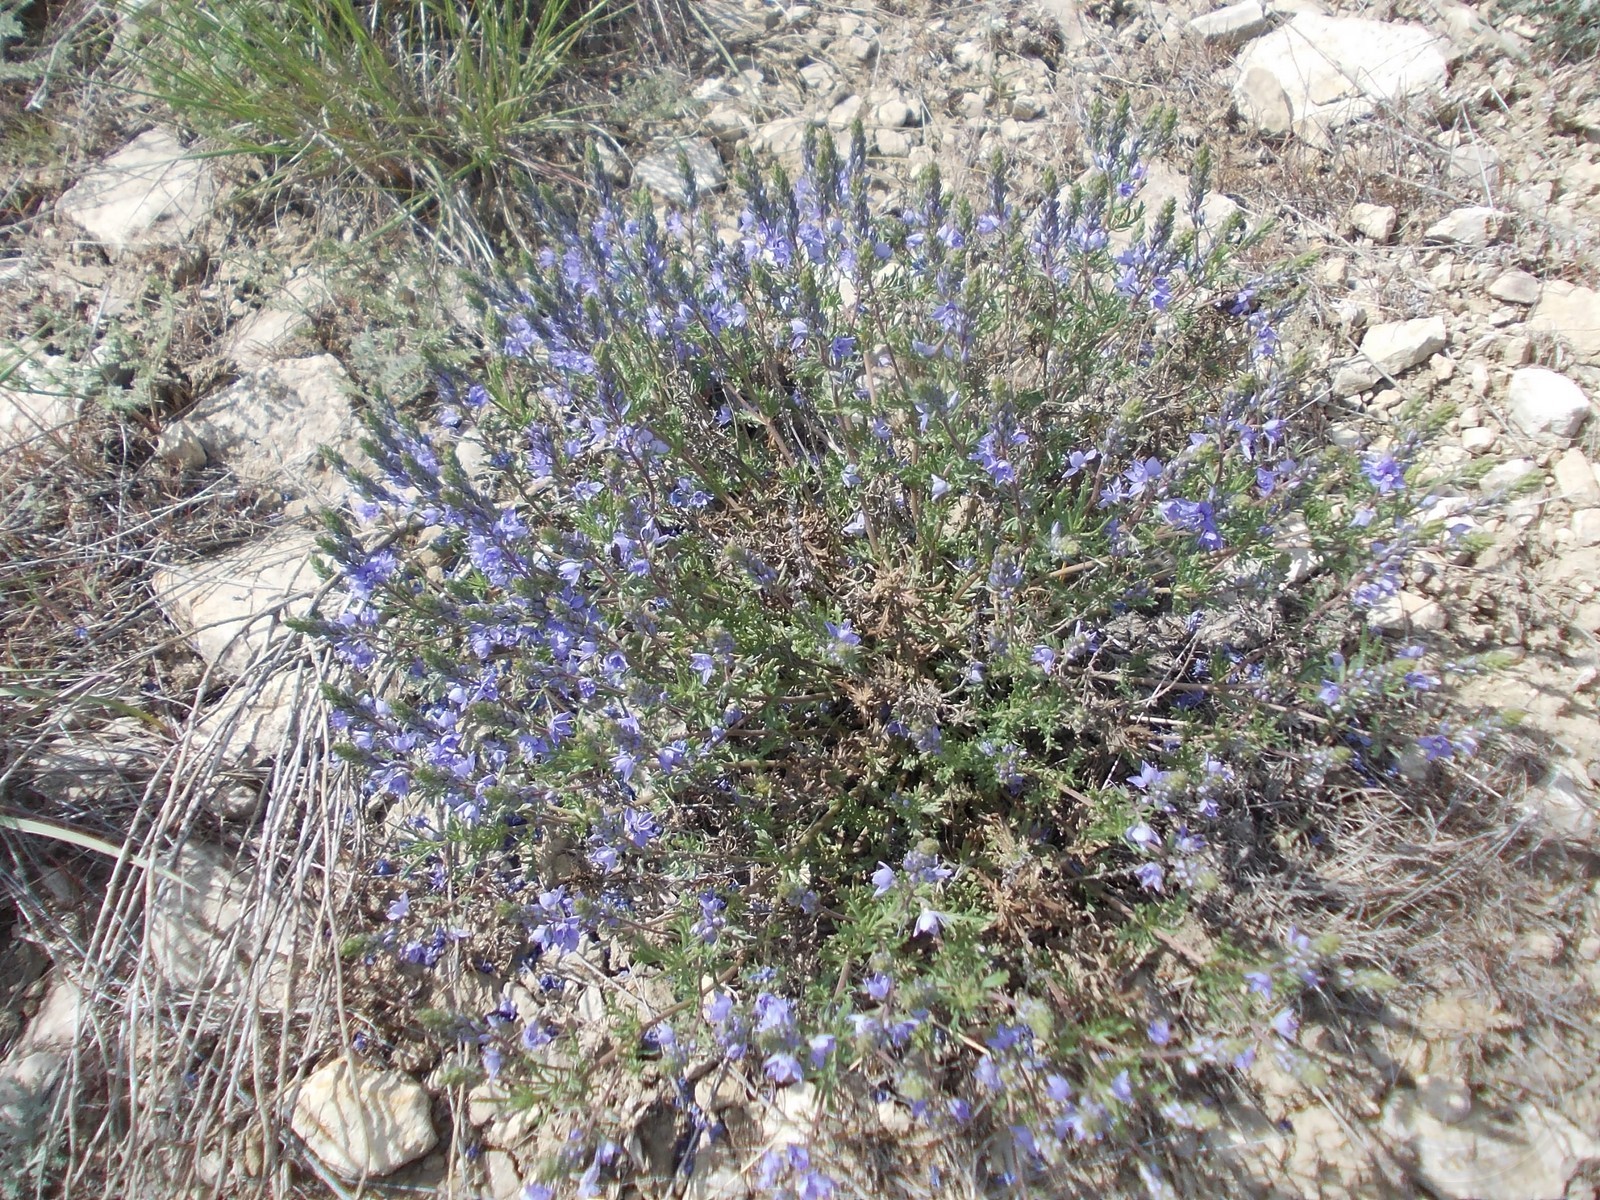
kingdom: Plantae
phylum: Tracheophyta
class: Magnoliopsida
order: Lamiales
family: Plantaginaceae
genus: Veronica
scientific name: Veronica multifida
